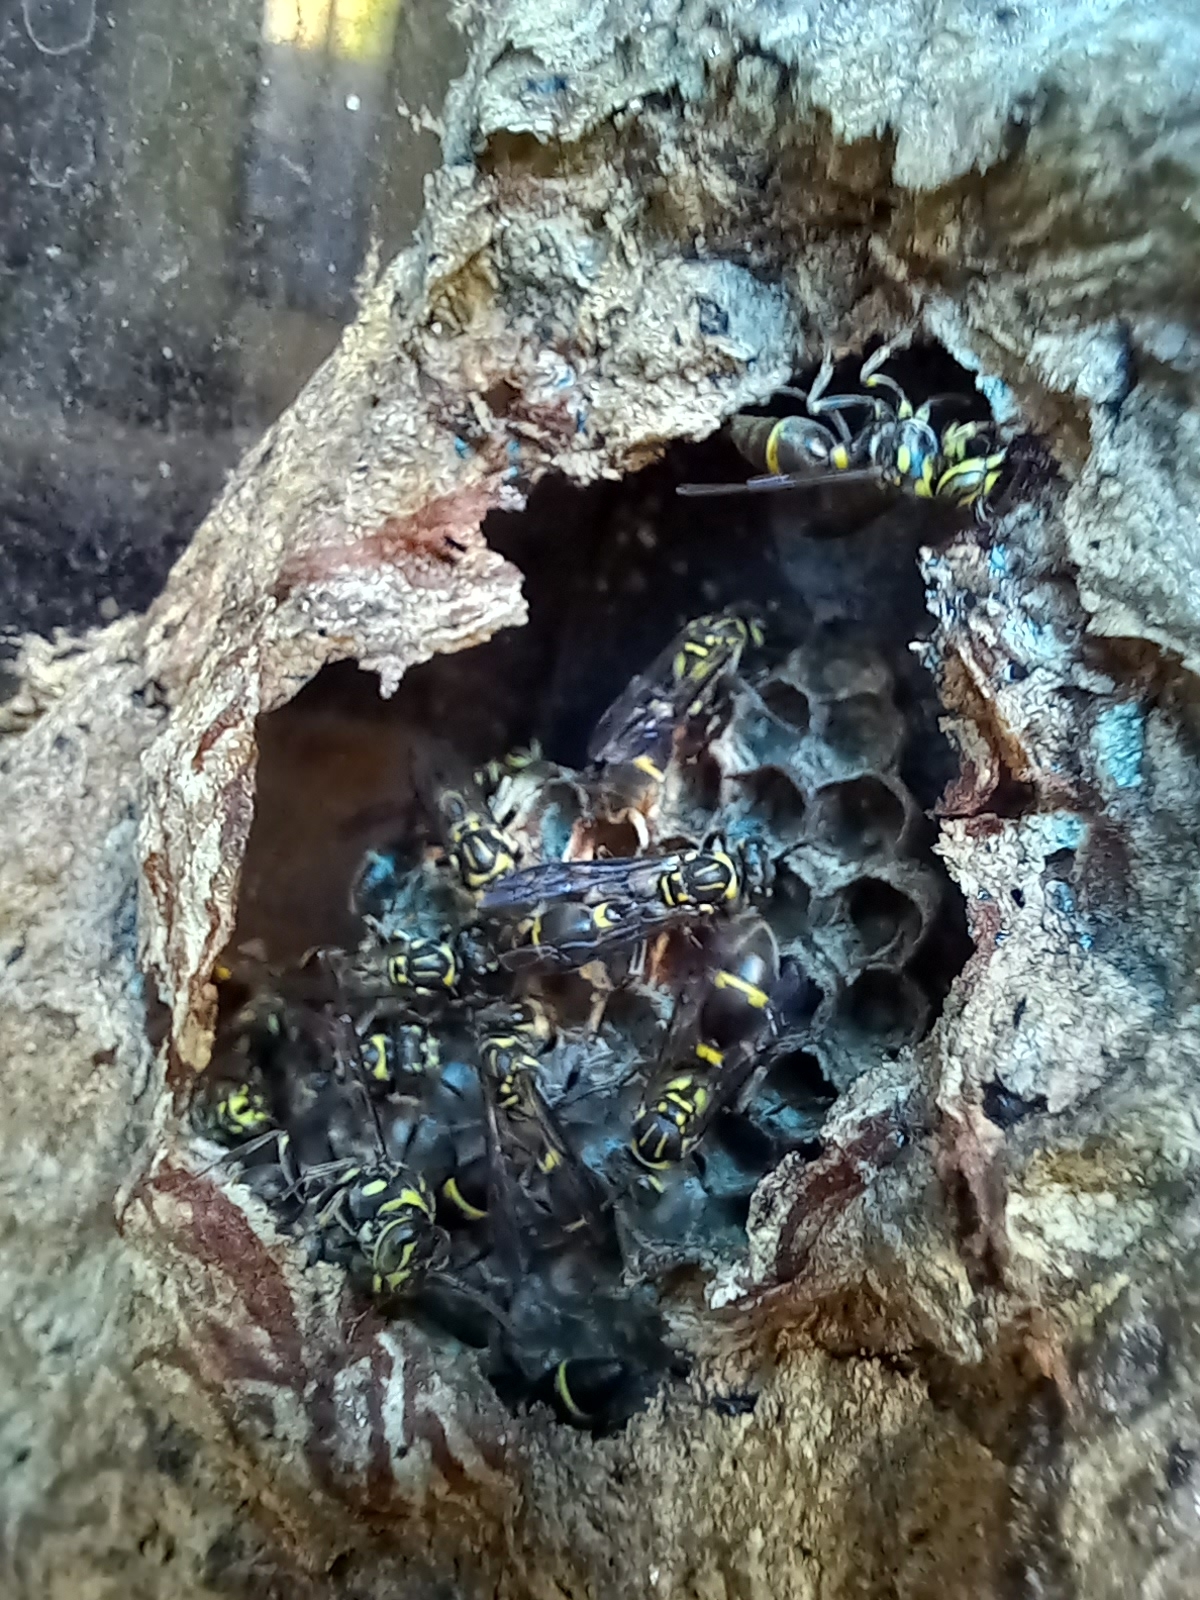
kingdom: Animalia
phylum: Arthropoda
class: Insecta
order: Hymenoptera
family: Vespidae
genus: Ropalidia
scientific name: Ropalidia nigrescens
